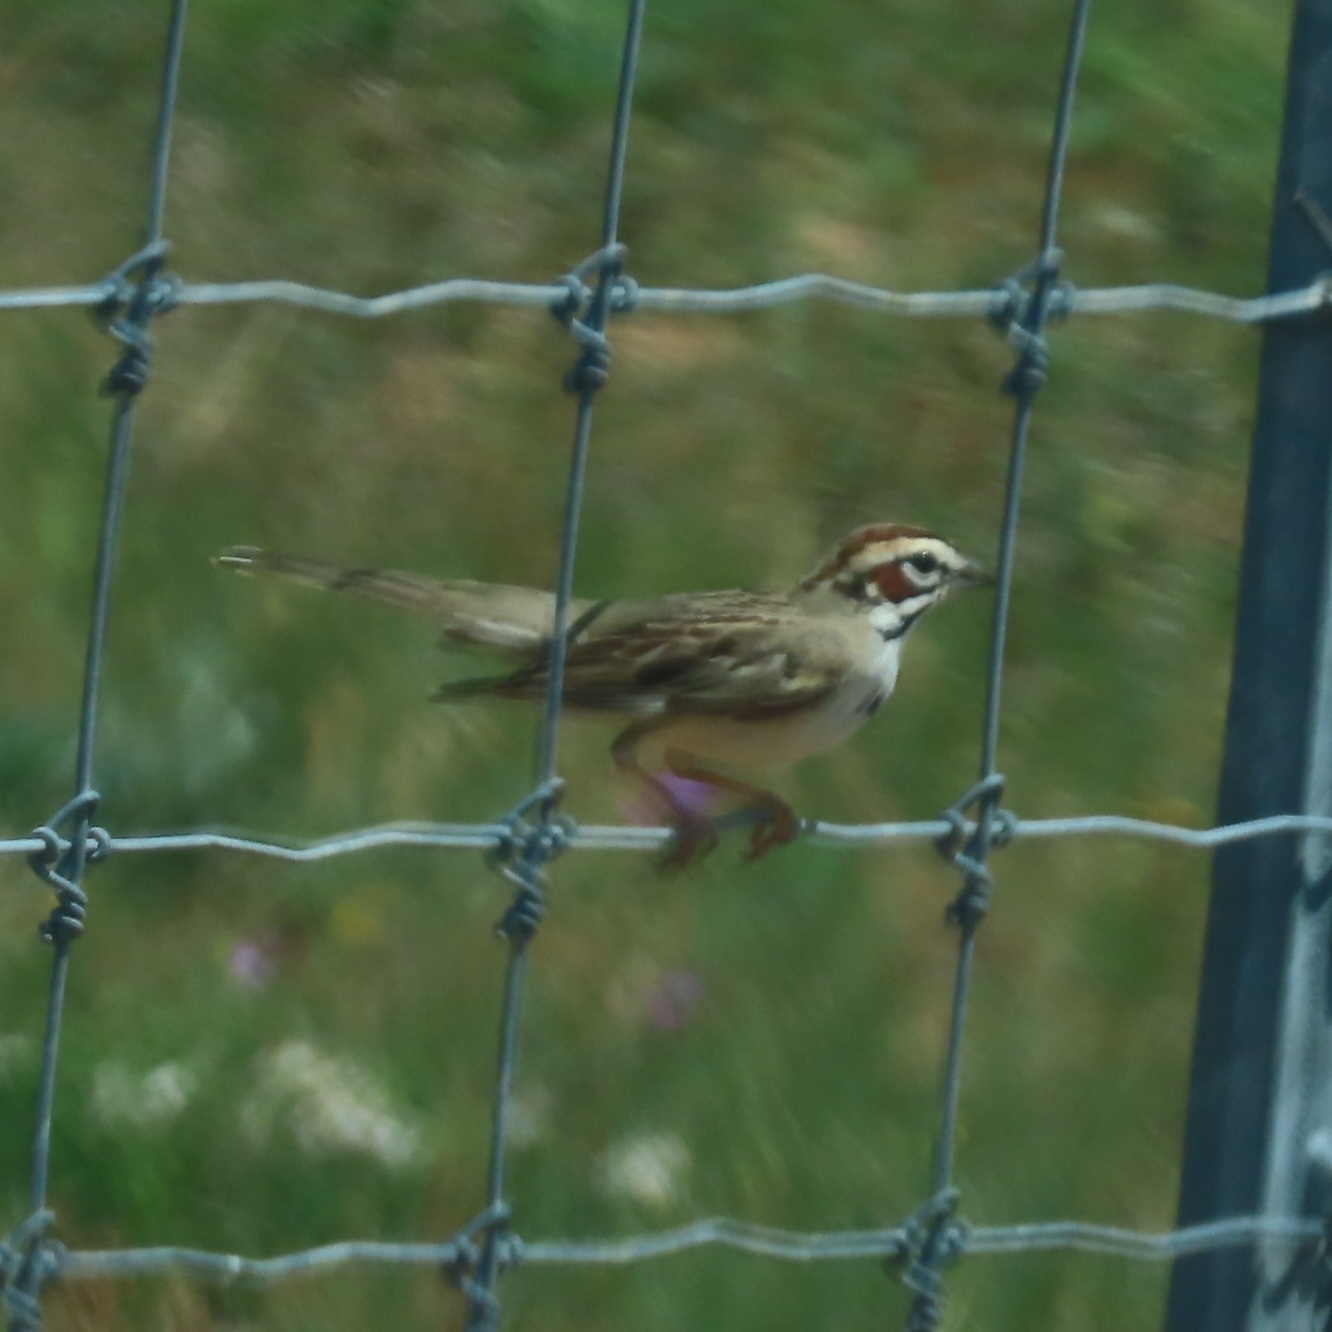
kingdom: Animalia
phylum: Chordata
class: Aves
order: Passeriformes
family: Passerellidae
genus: Chondestes
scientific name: Chondestes grammacus
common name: Lark sparrow
